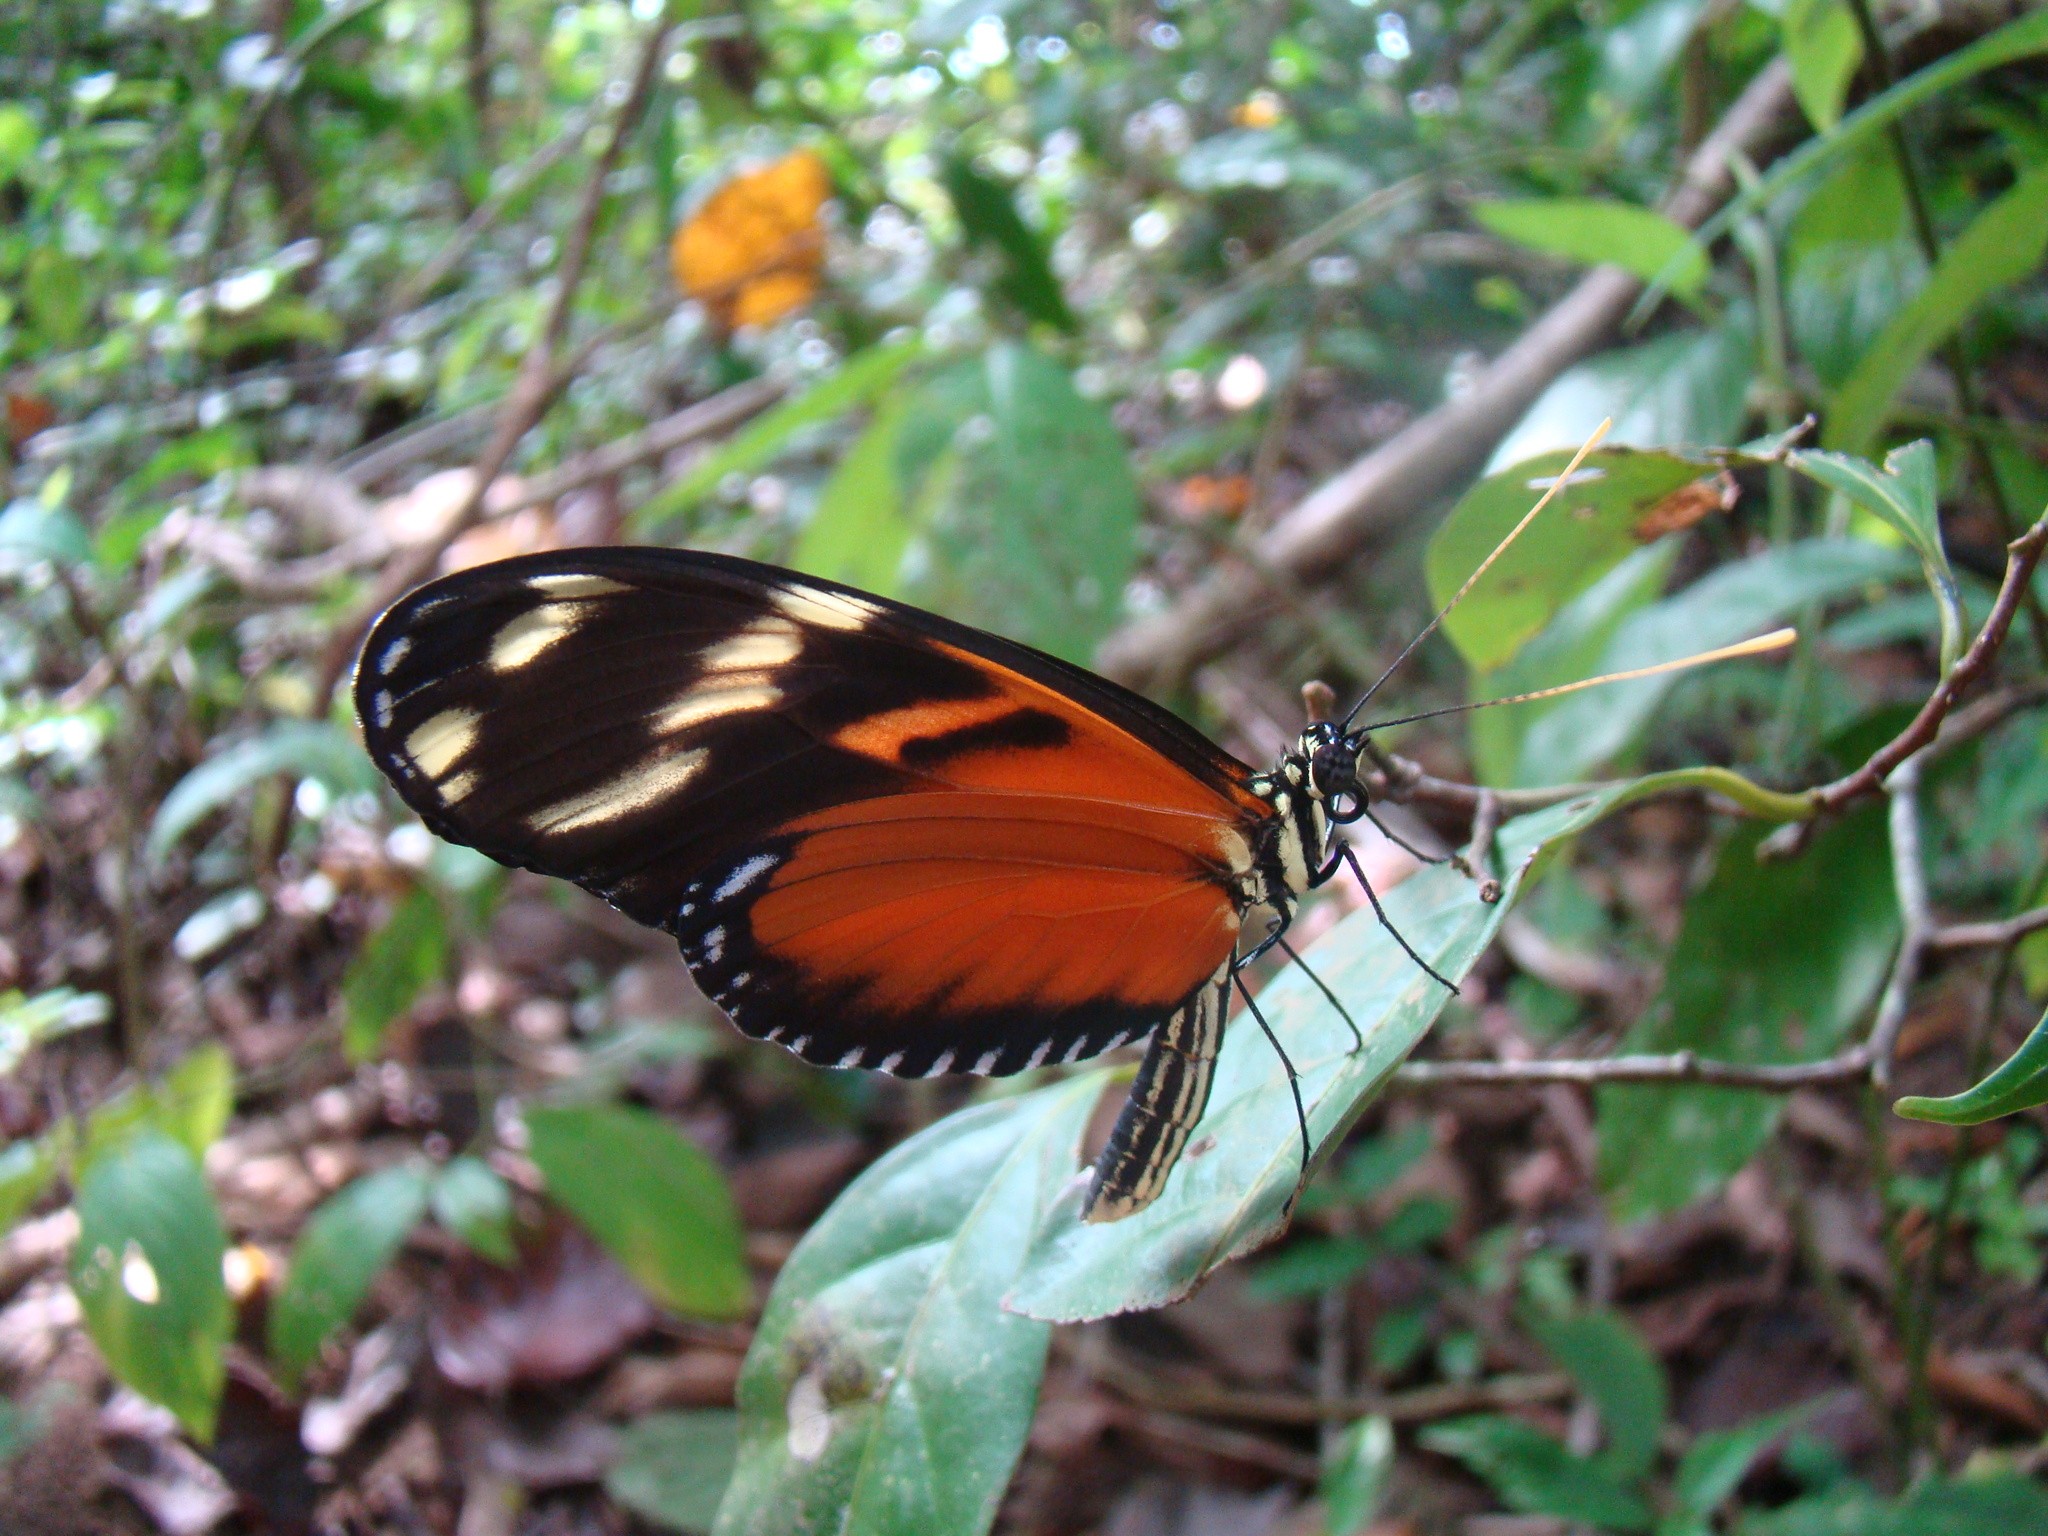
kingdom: Animalia
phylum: Arthropoda
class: Insecta
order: Lepidoptera
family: Nymphalidae
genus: Heliconius
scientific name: Heliconius ismenius
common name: Ismenius tiger
